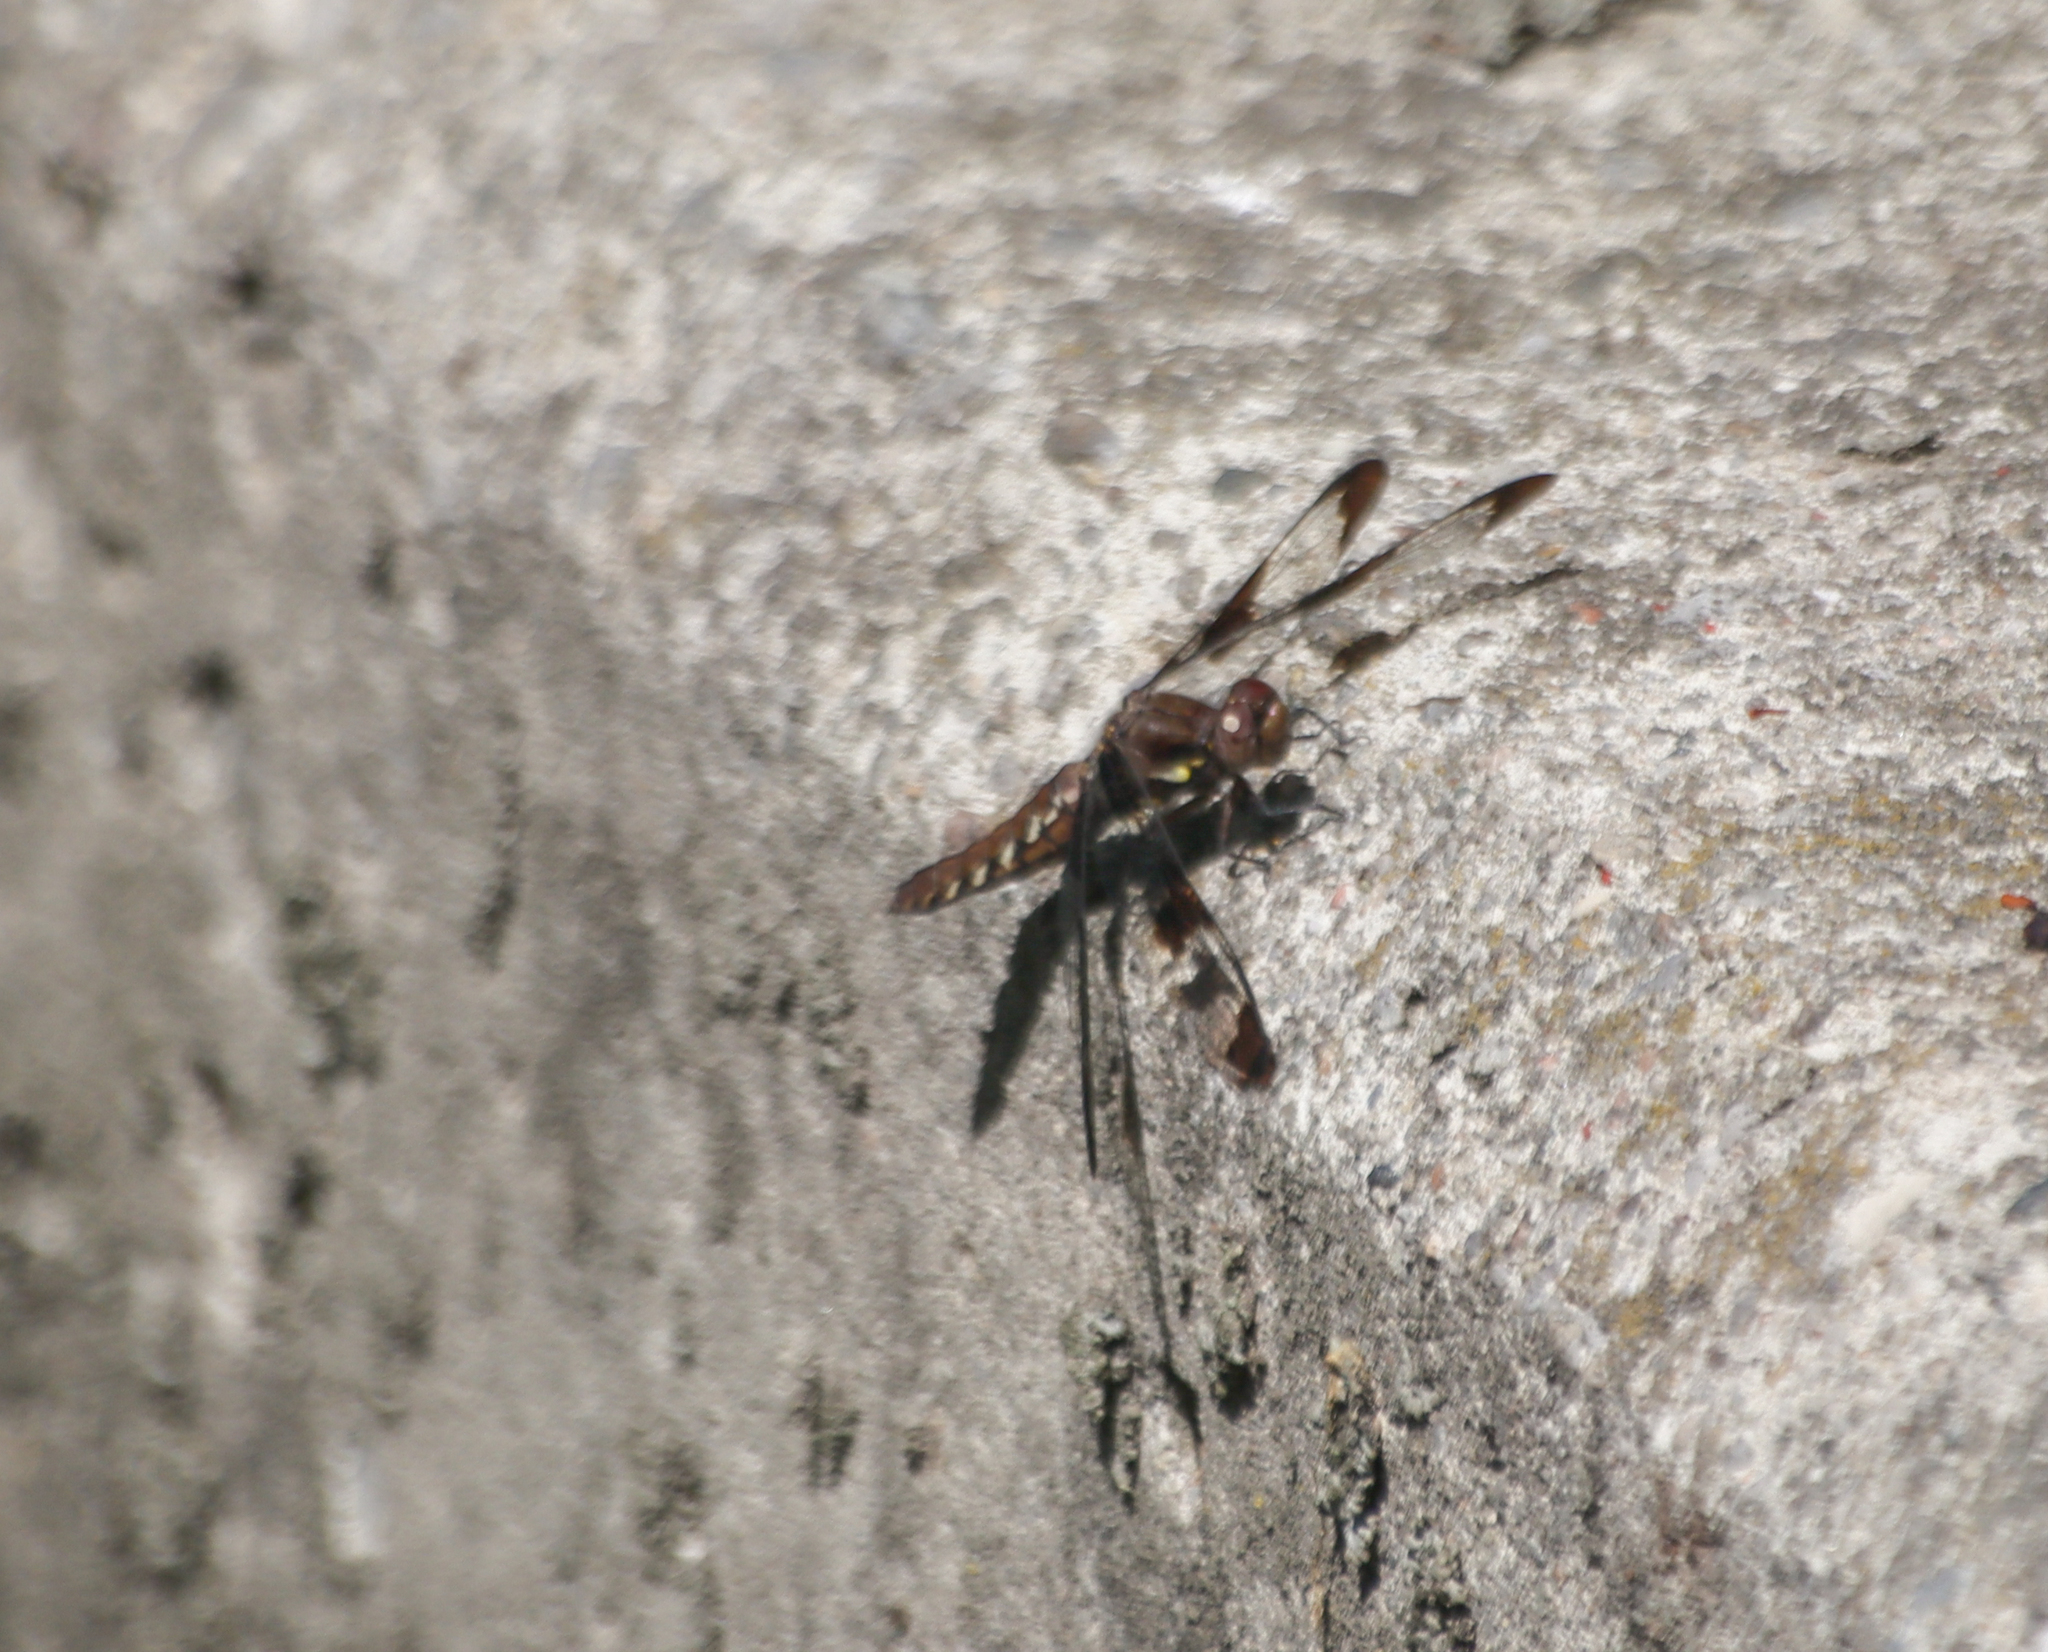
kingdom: Animalia
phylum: Arthropoda
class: Insecta
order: Odonata
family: Libellulidae
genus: Plathemis
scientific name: Plathemis lydia
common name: Common whitetail
